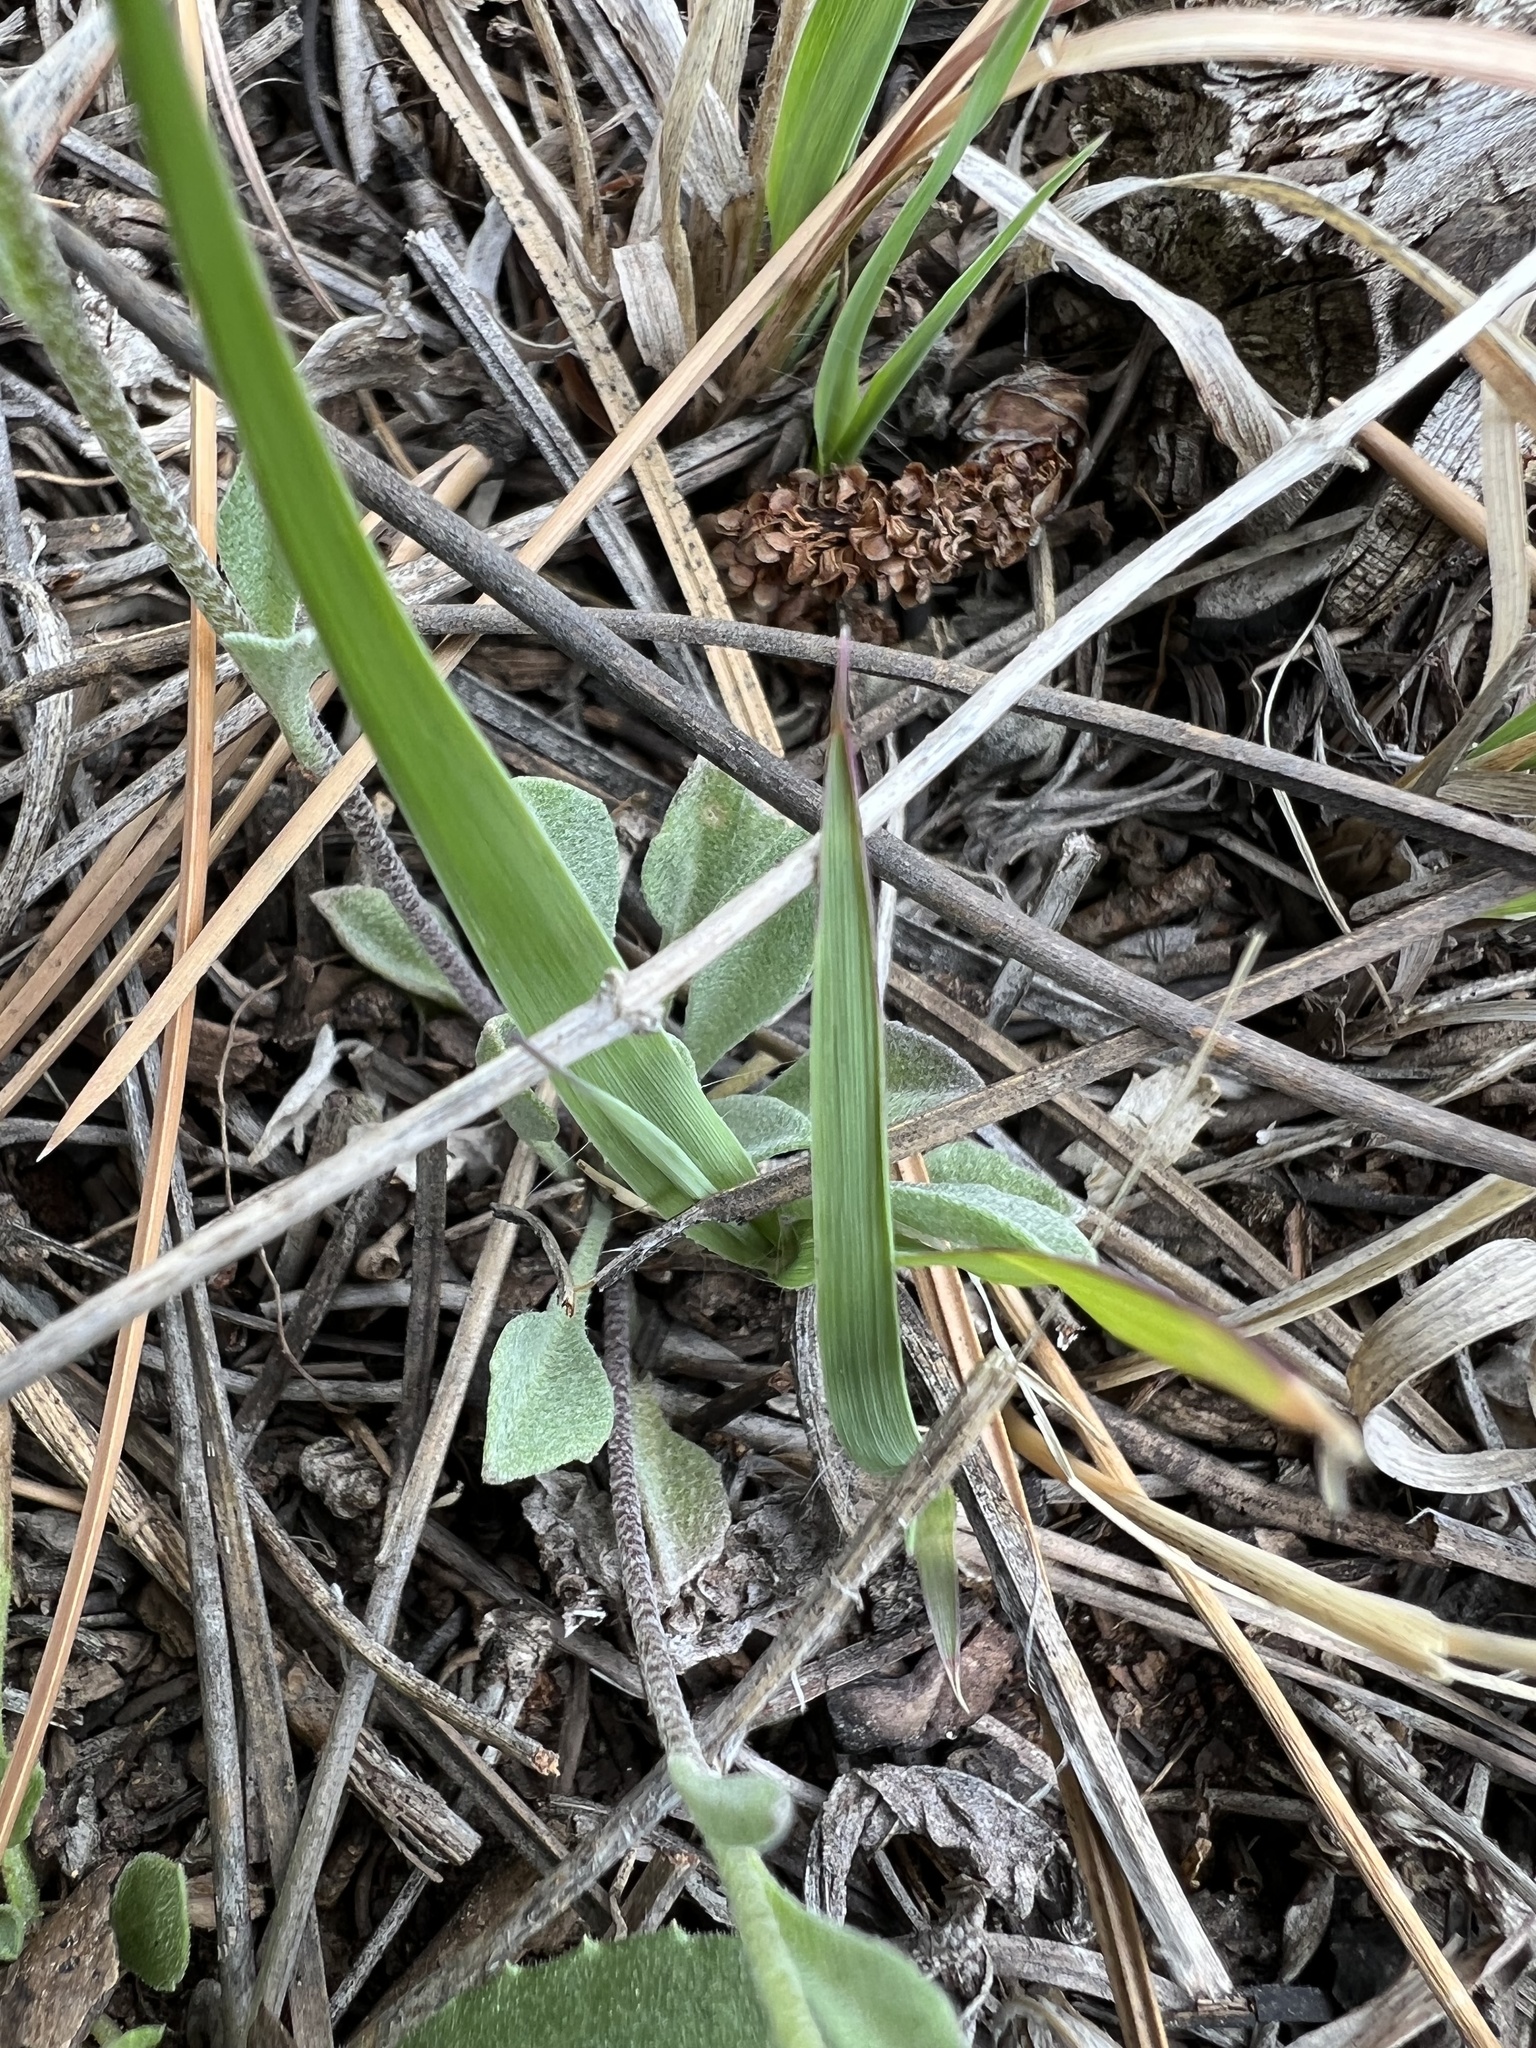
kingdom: Plantae
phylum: Tracheophyta
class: Magnoliopsida
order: Brassicales
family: Brassicaceae
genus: Physaria
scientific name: Physaria montana
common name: Mountain bladderpod
